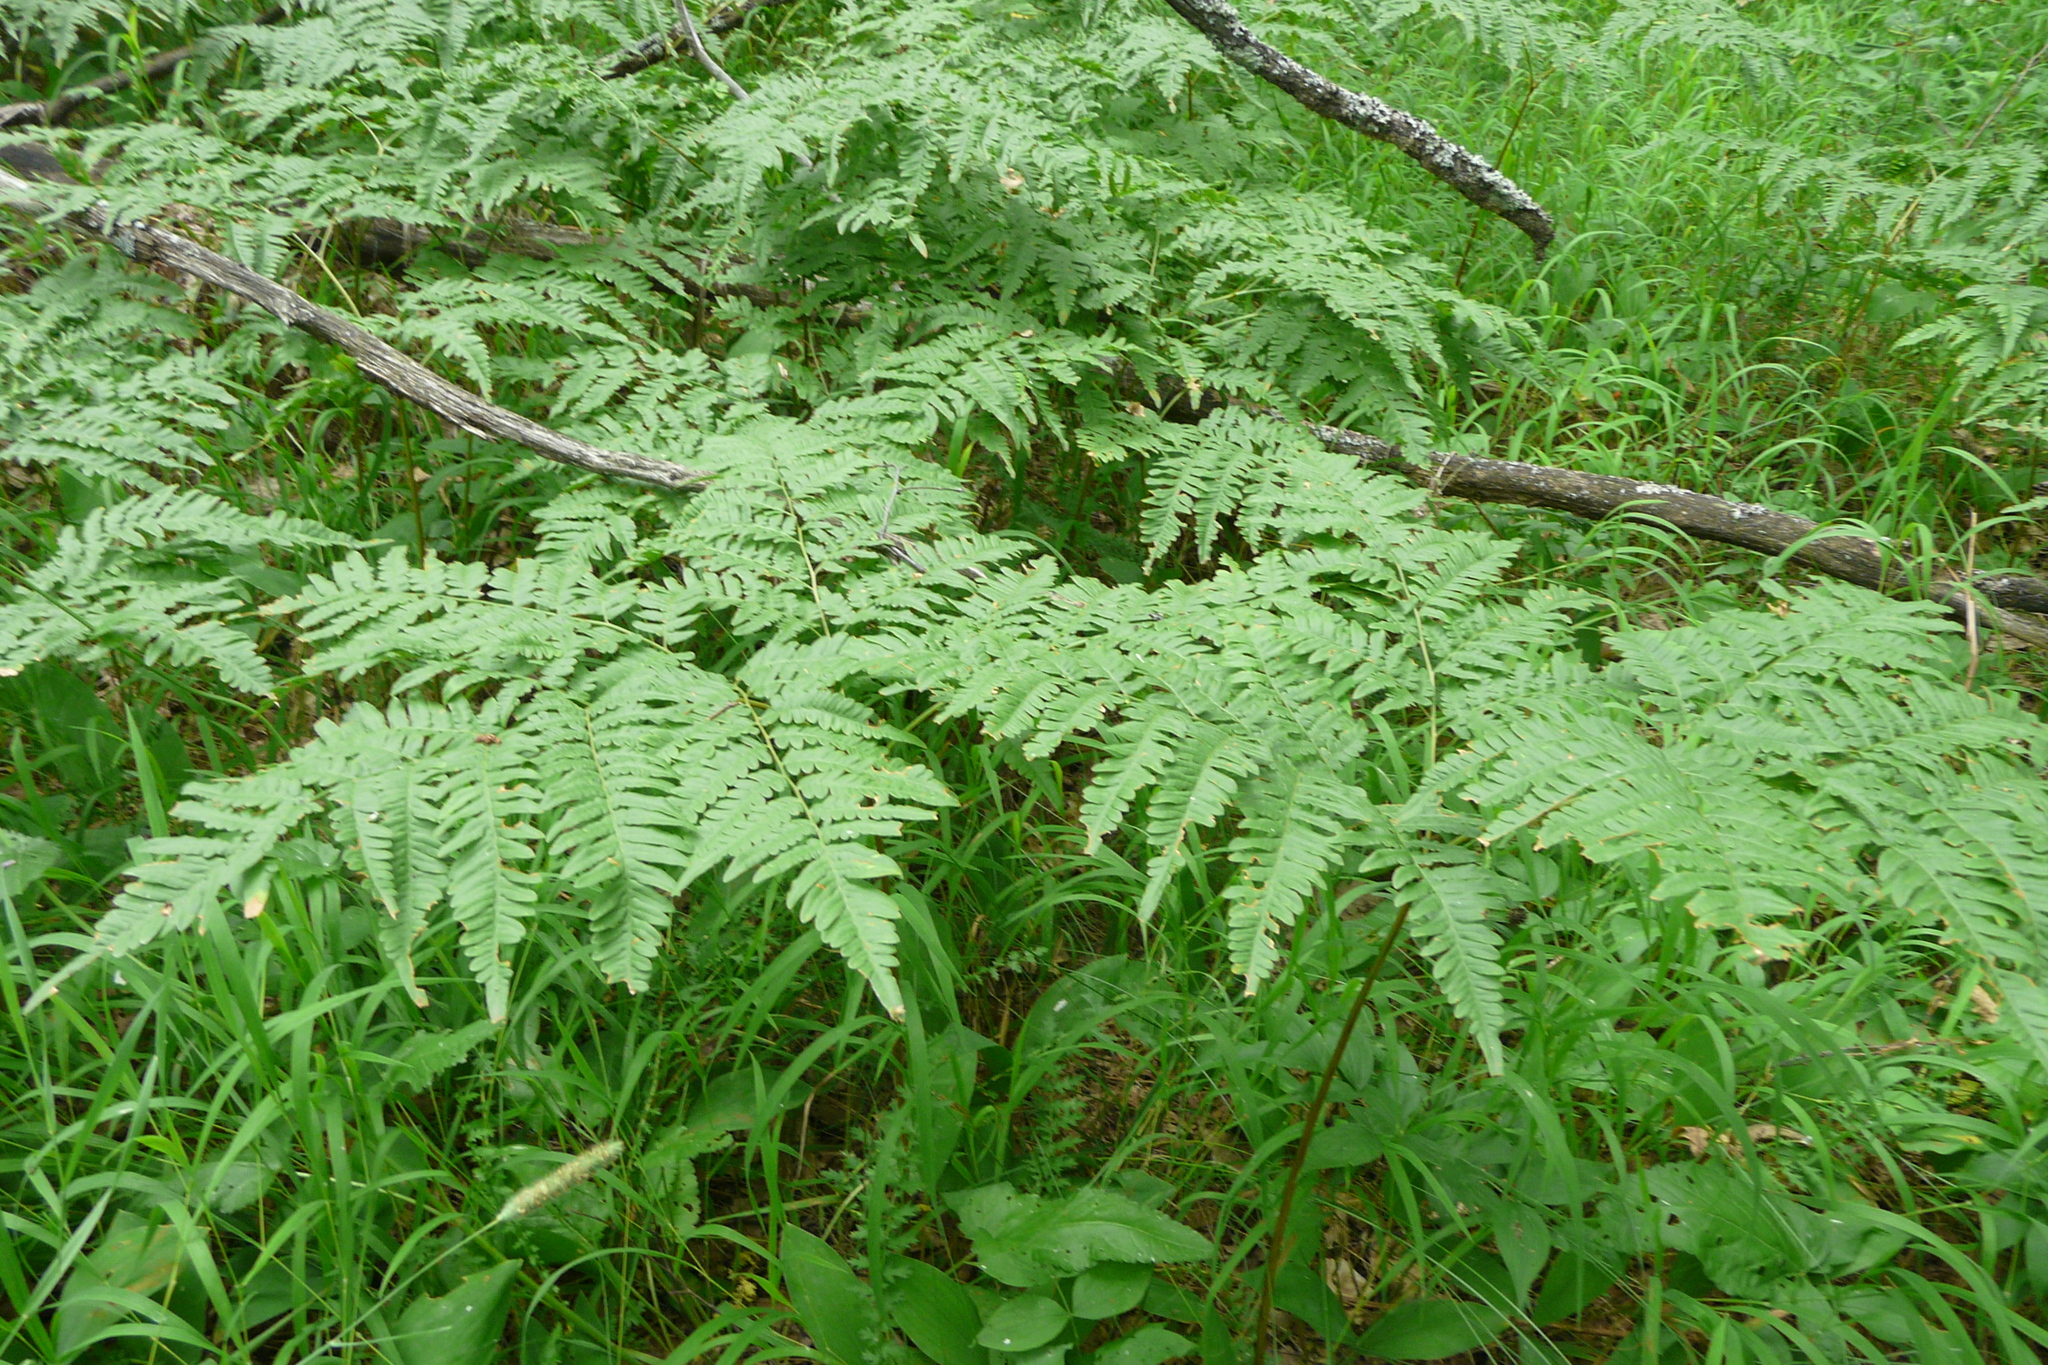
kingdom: Plantae
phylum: Tracheophyta
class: Polypodiopsida
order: Polypodiales
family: Dennstaedtiaceae
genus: Pteridium
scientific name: Pteridium aquilinum
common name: Bracken
